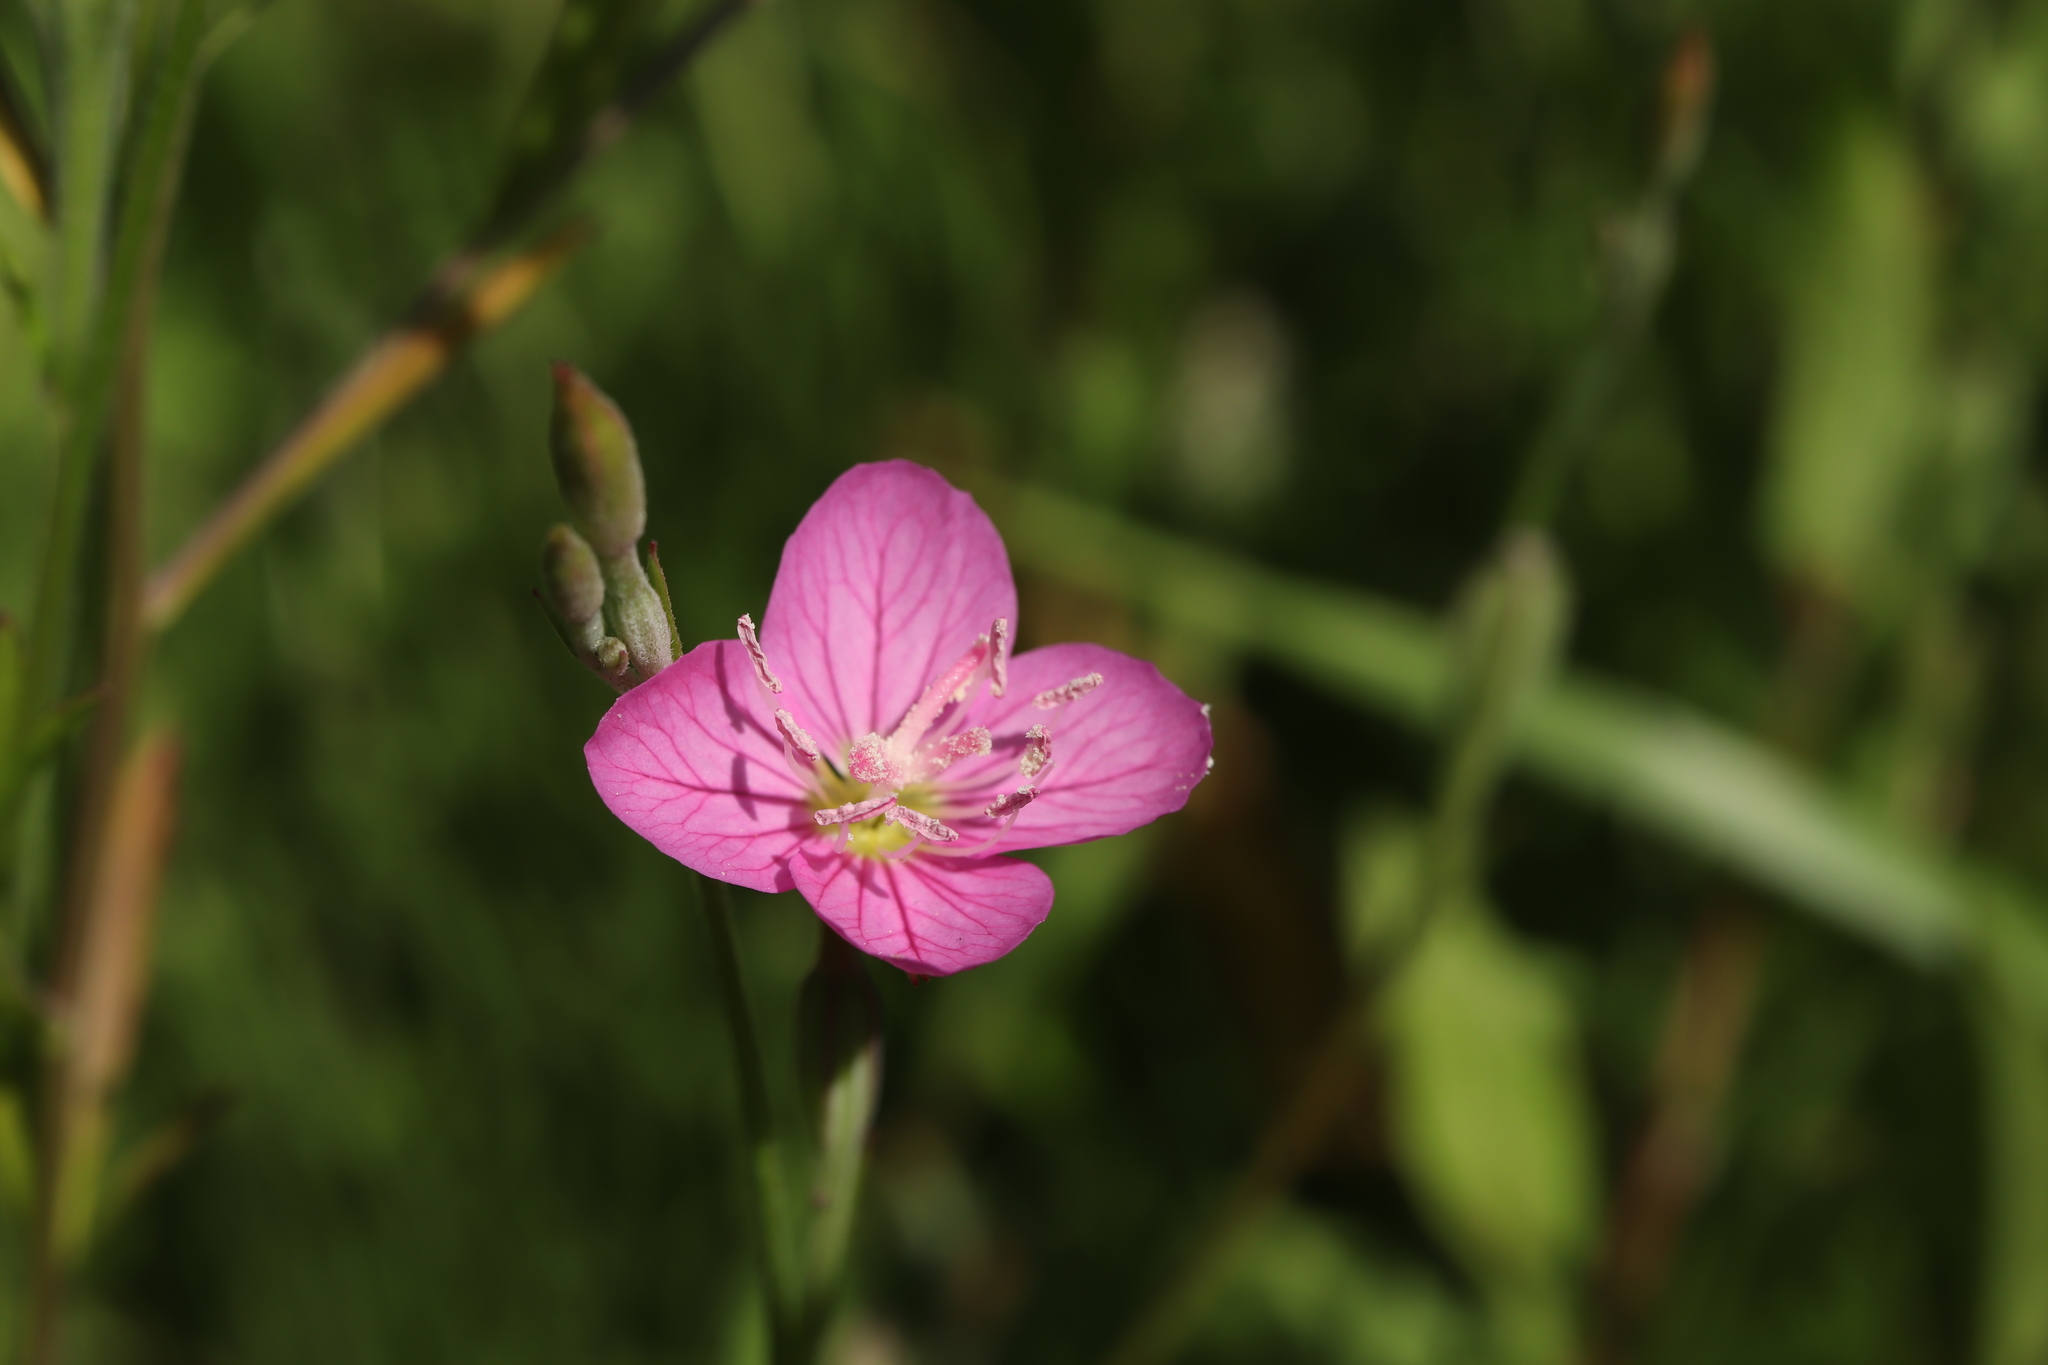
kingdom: Plantae
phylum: Tracheophyta
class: Magnoliopsida
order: Myrtales
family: Onagraceae
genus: Oenothera
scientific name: Oenothera rosea
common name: Rosy evening-primrose
